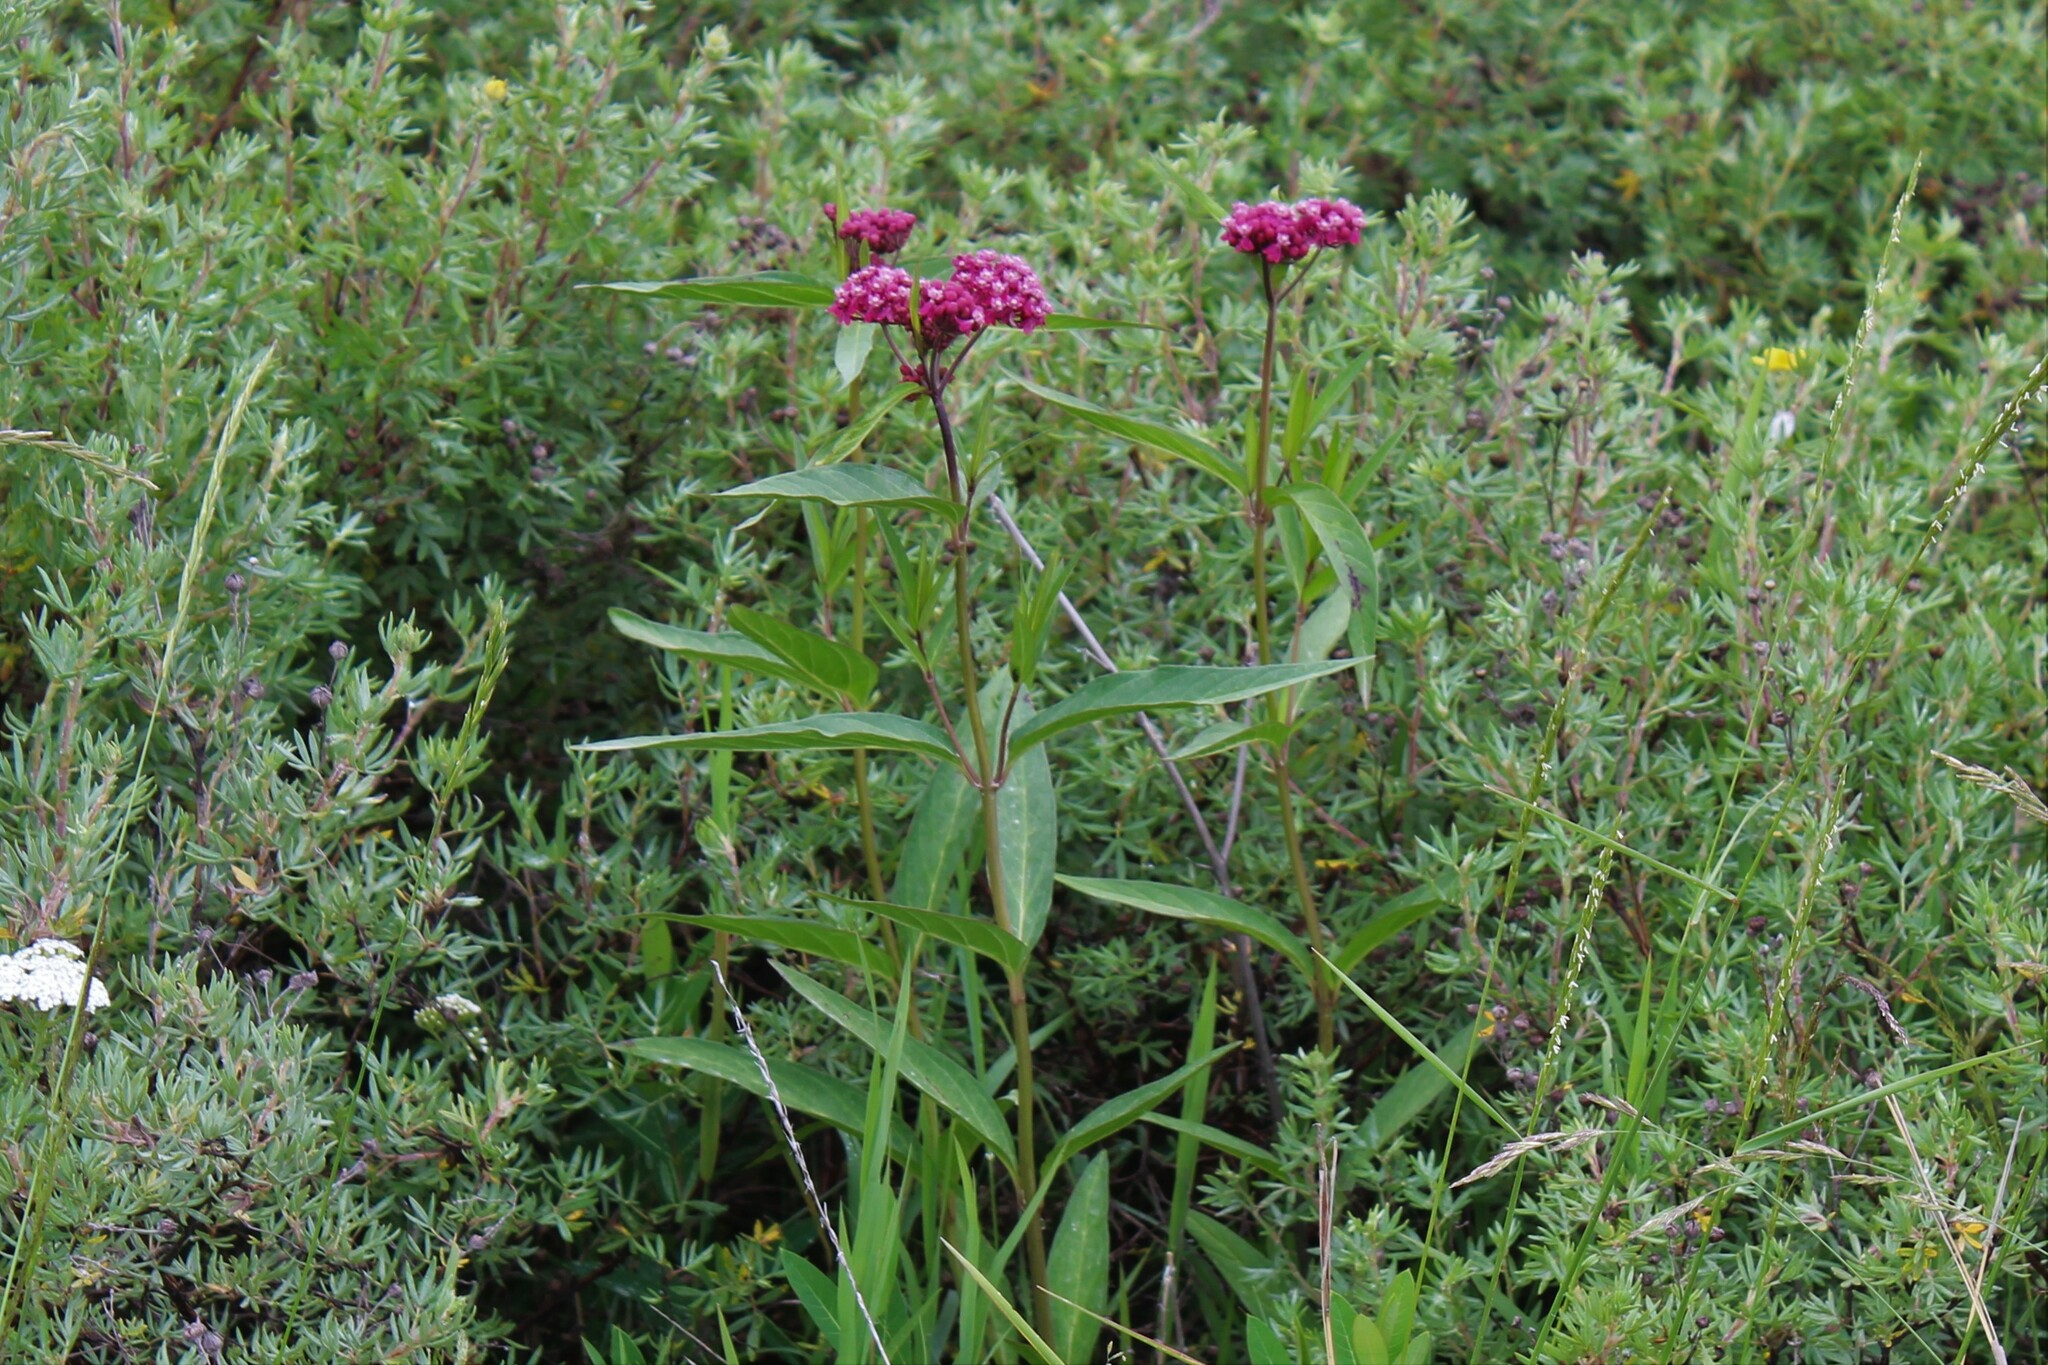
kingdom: Plantae
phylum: Tracheophyta
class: Magnoliopsida
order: Gentianales
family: Apocynaceae
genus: Asclepias
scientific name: Asclepias incarnata
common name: Swamp milkweed
